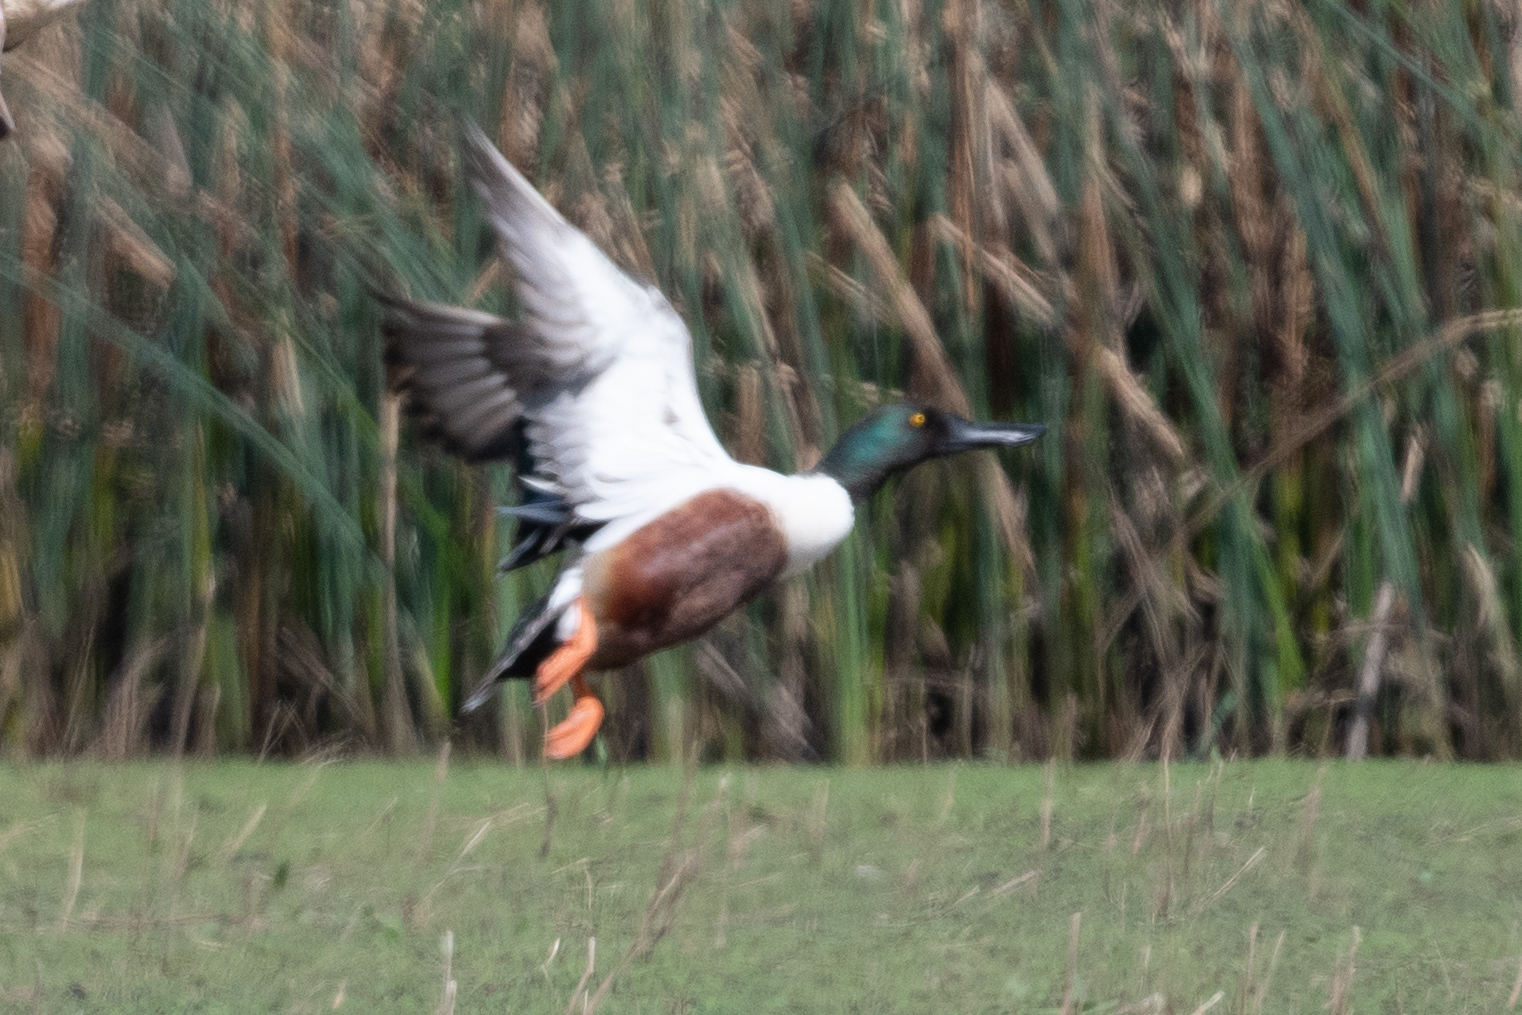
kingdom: Animalia
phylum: Chordata
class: Aves
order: Anseriformes
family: Anatidae
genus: Spatula
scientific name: Spatula clypeata
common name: Northern shoveler
